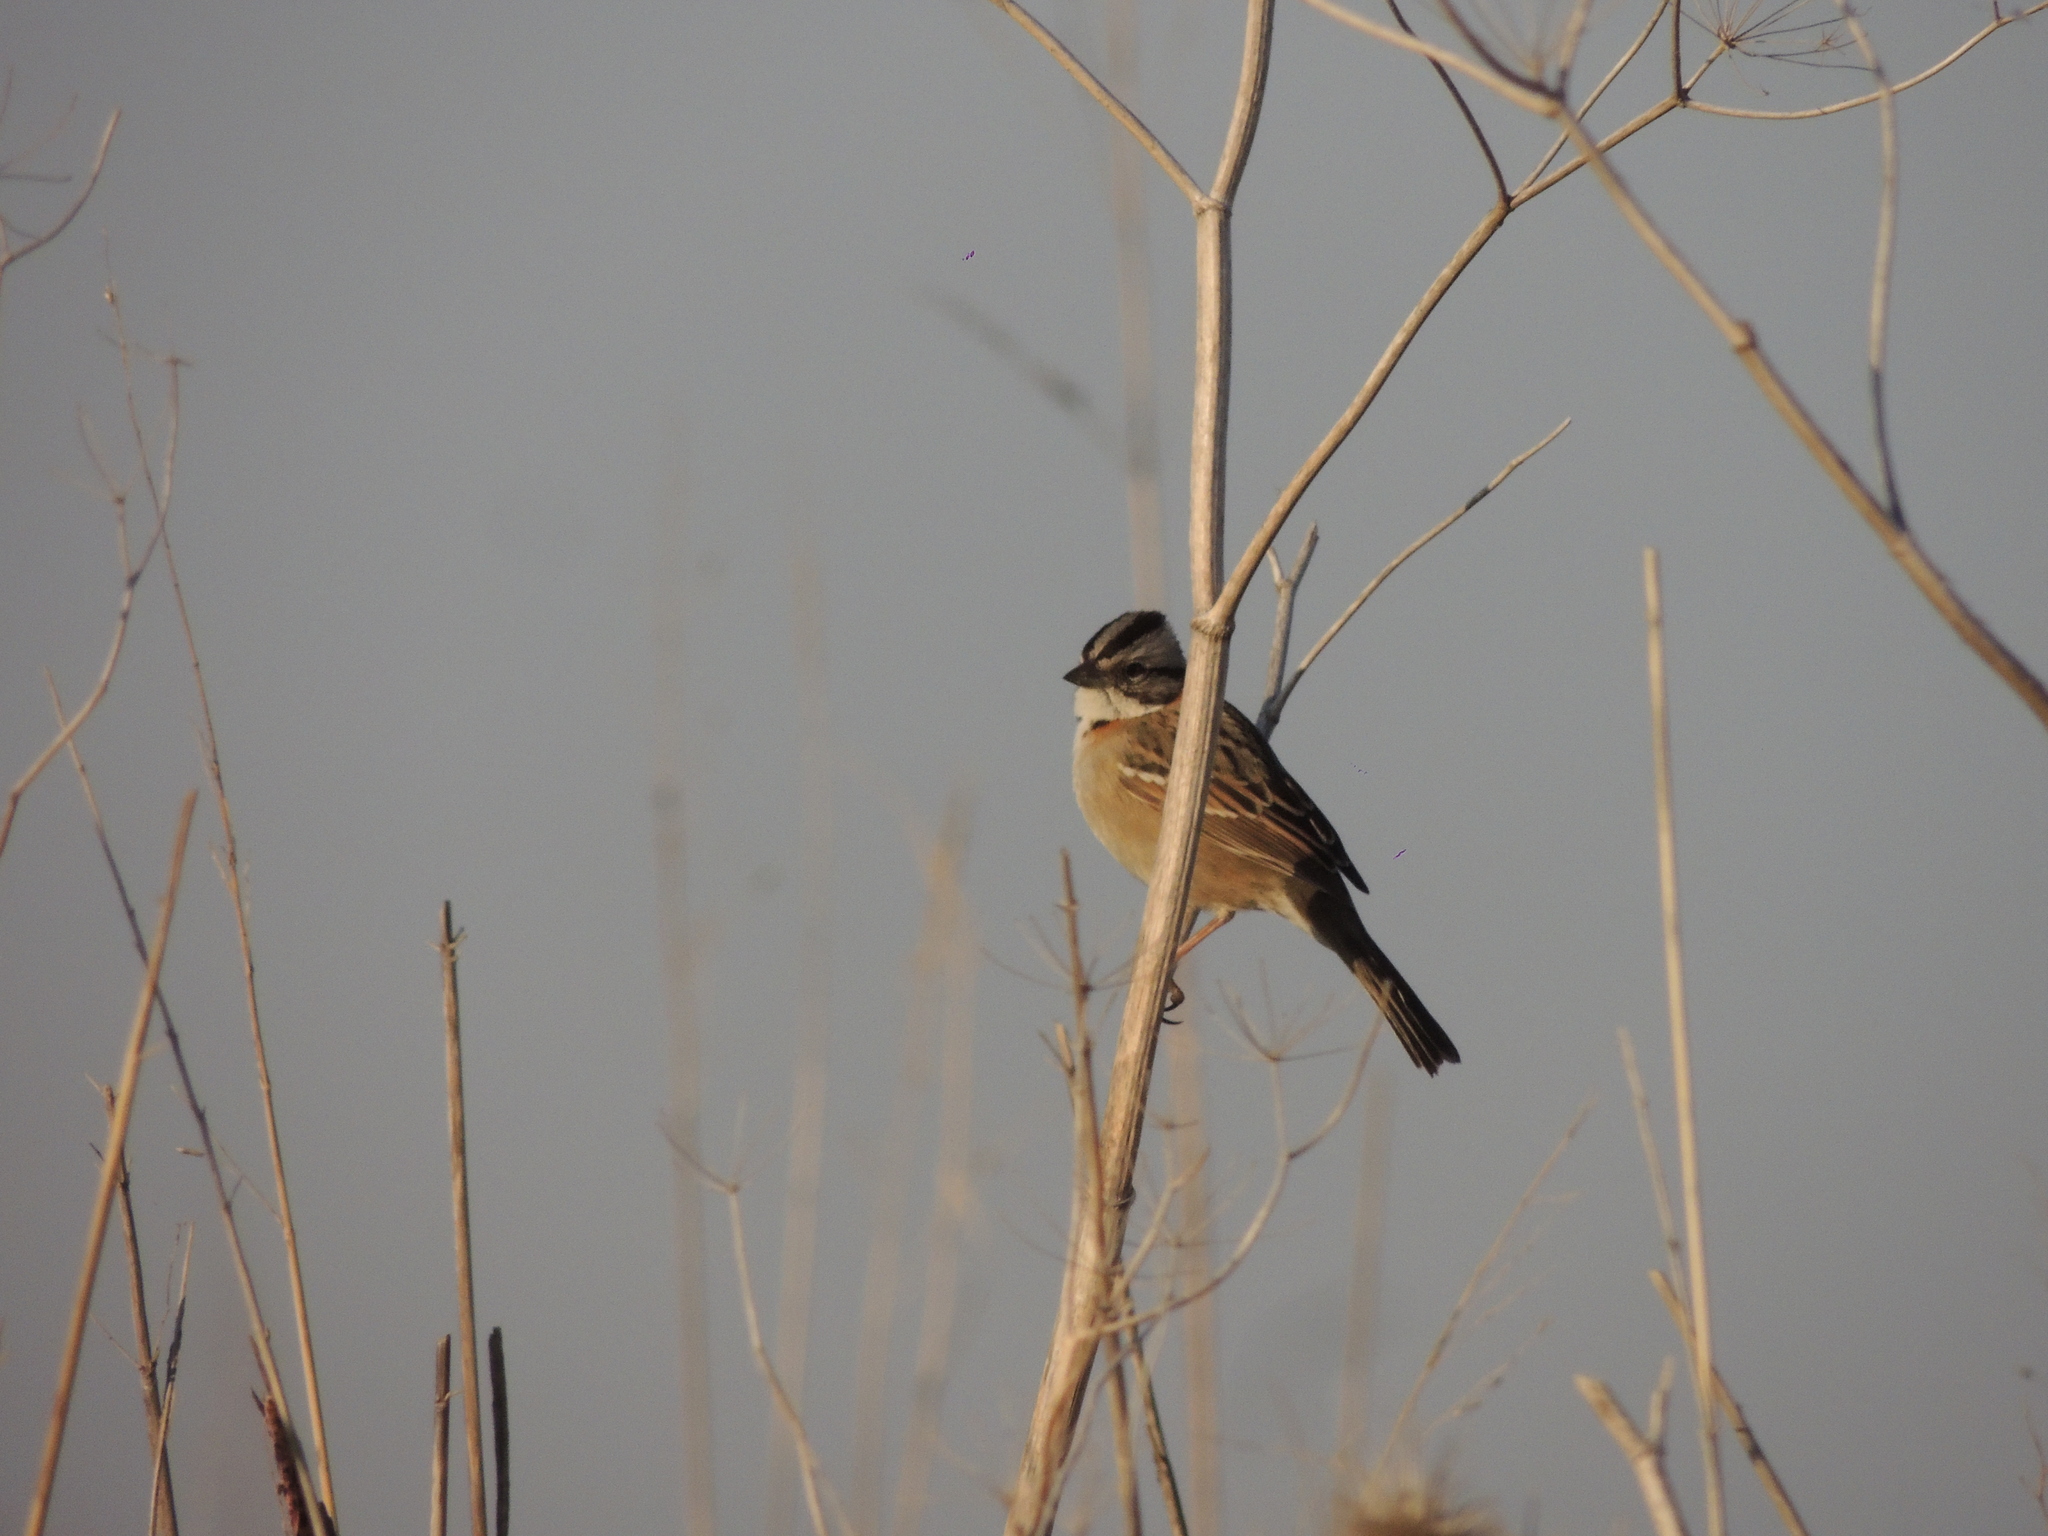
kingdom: Animalia
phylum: Chordata
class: Aves
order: Passeriformes
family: Passerellidae
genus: Zonotrichia
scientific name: Zonotrichia capensis
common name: Rufous-collared sparrow
